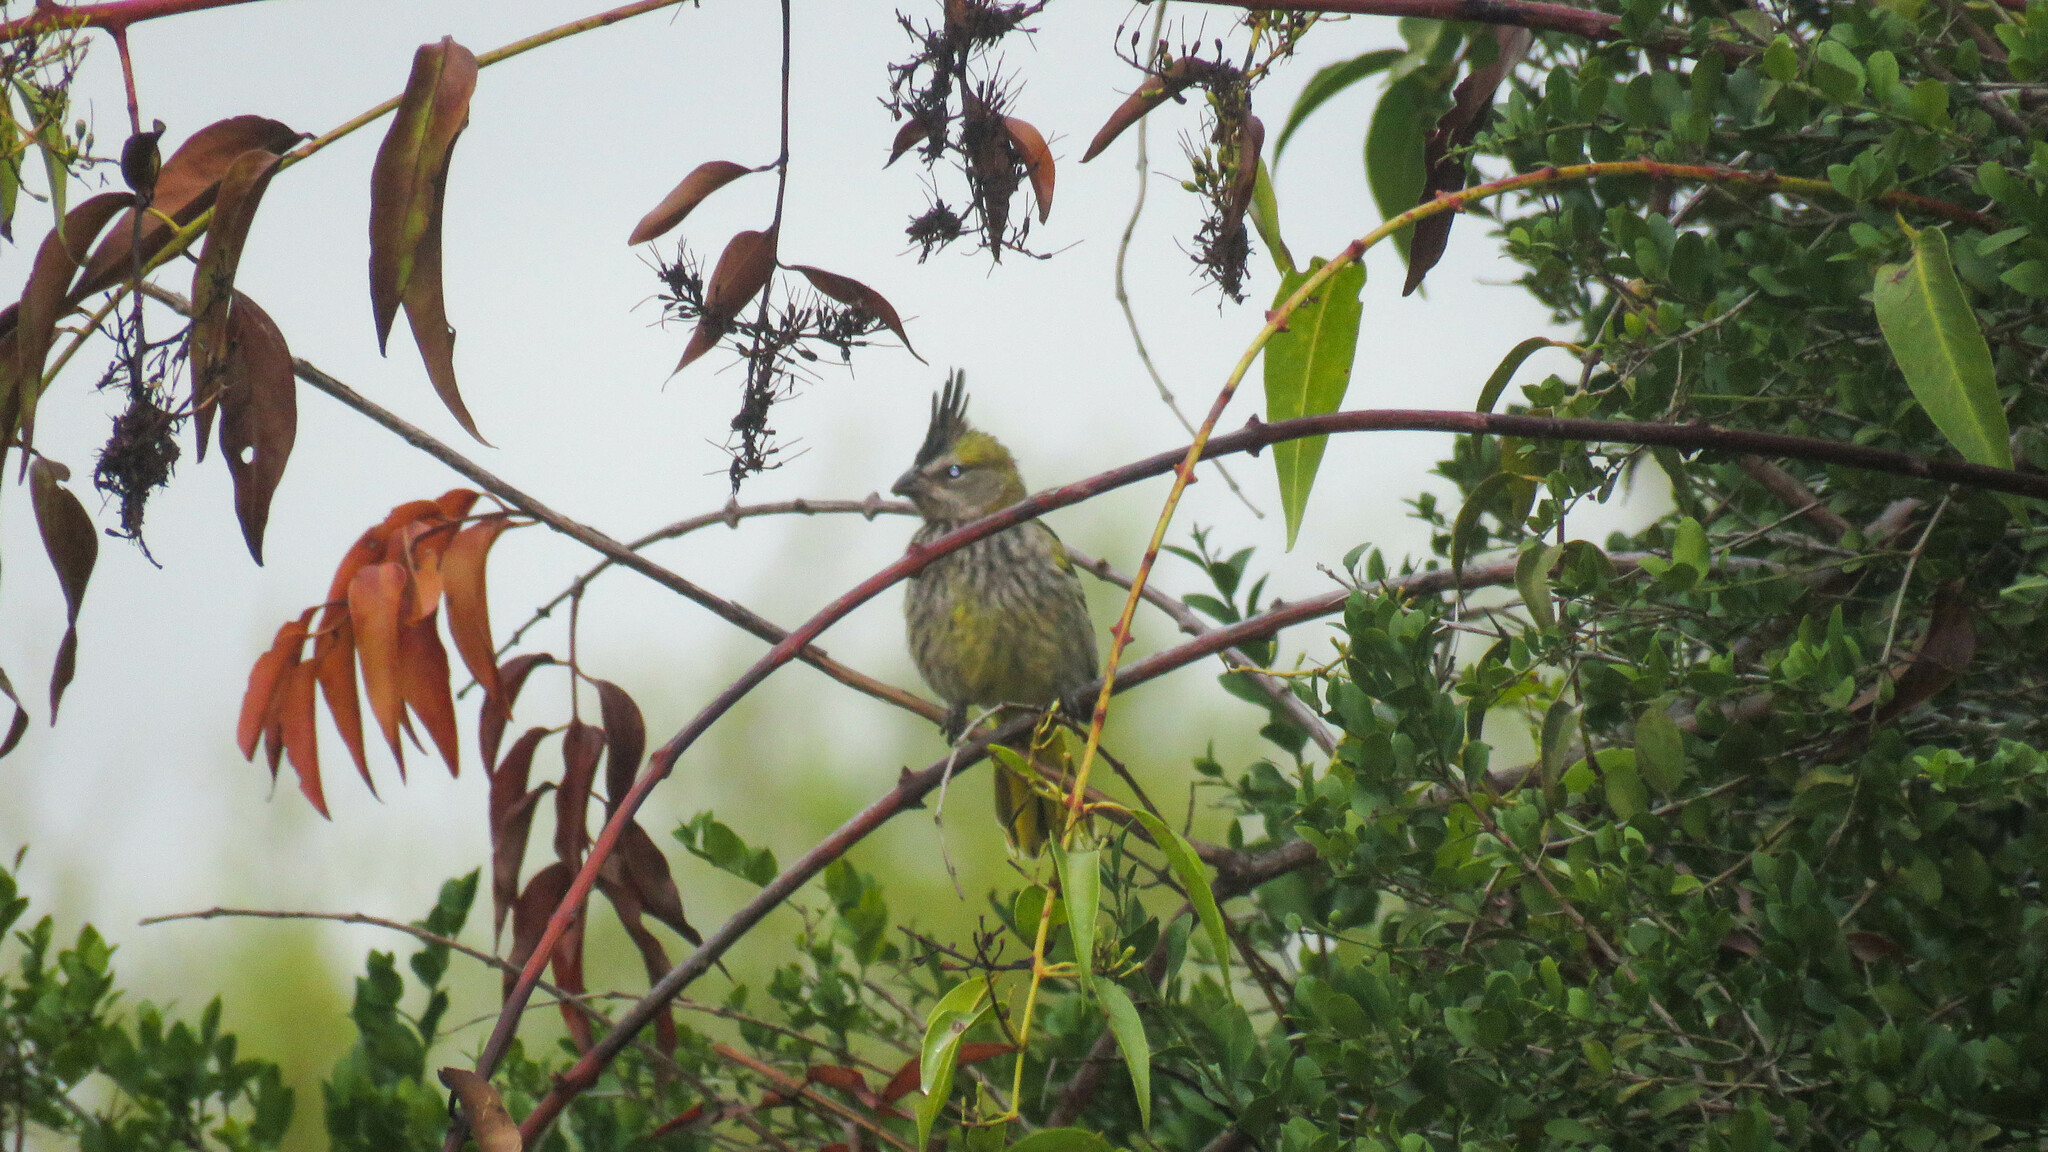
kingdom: Animalia
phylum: Chordata
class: Aves
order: Passeriformes
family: Thraupidae
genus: Gubernatrix
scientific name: Gubernatrix cristata
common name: Yellow cardinal
